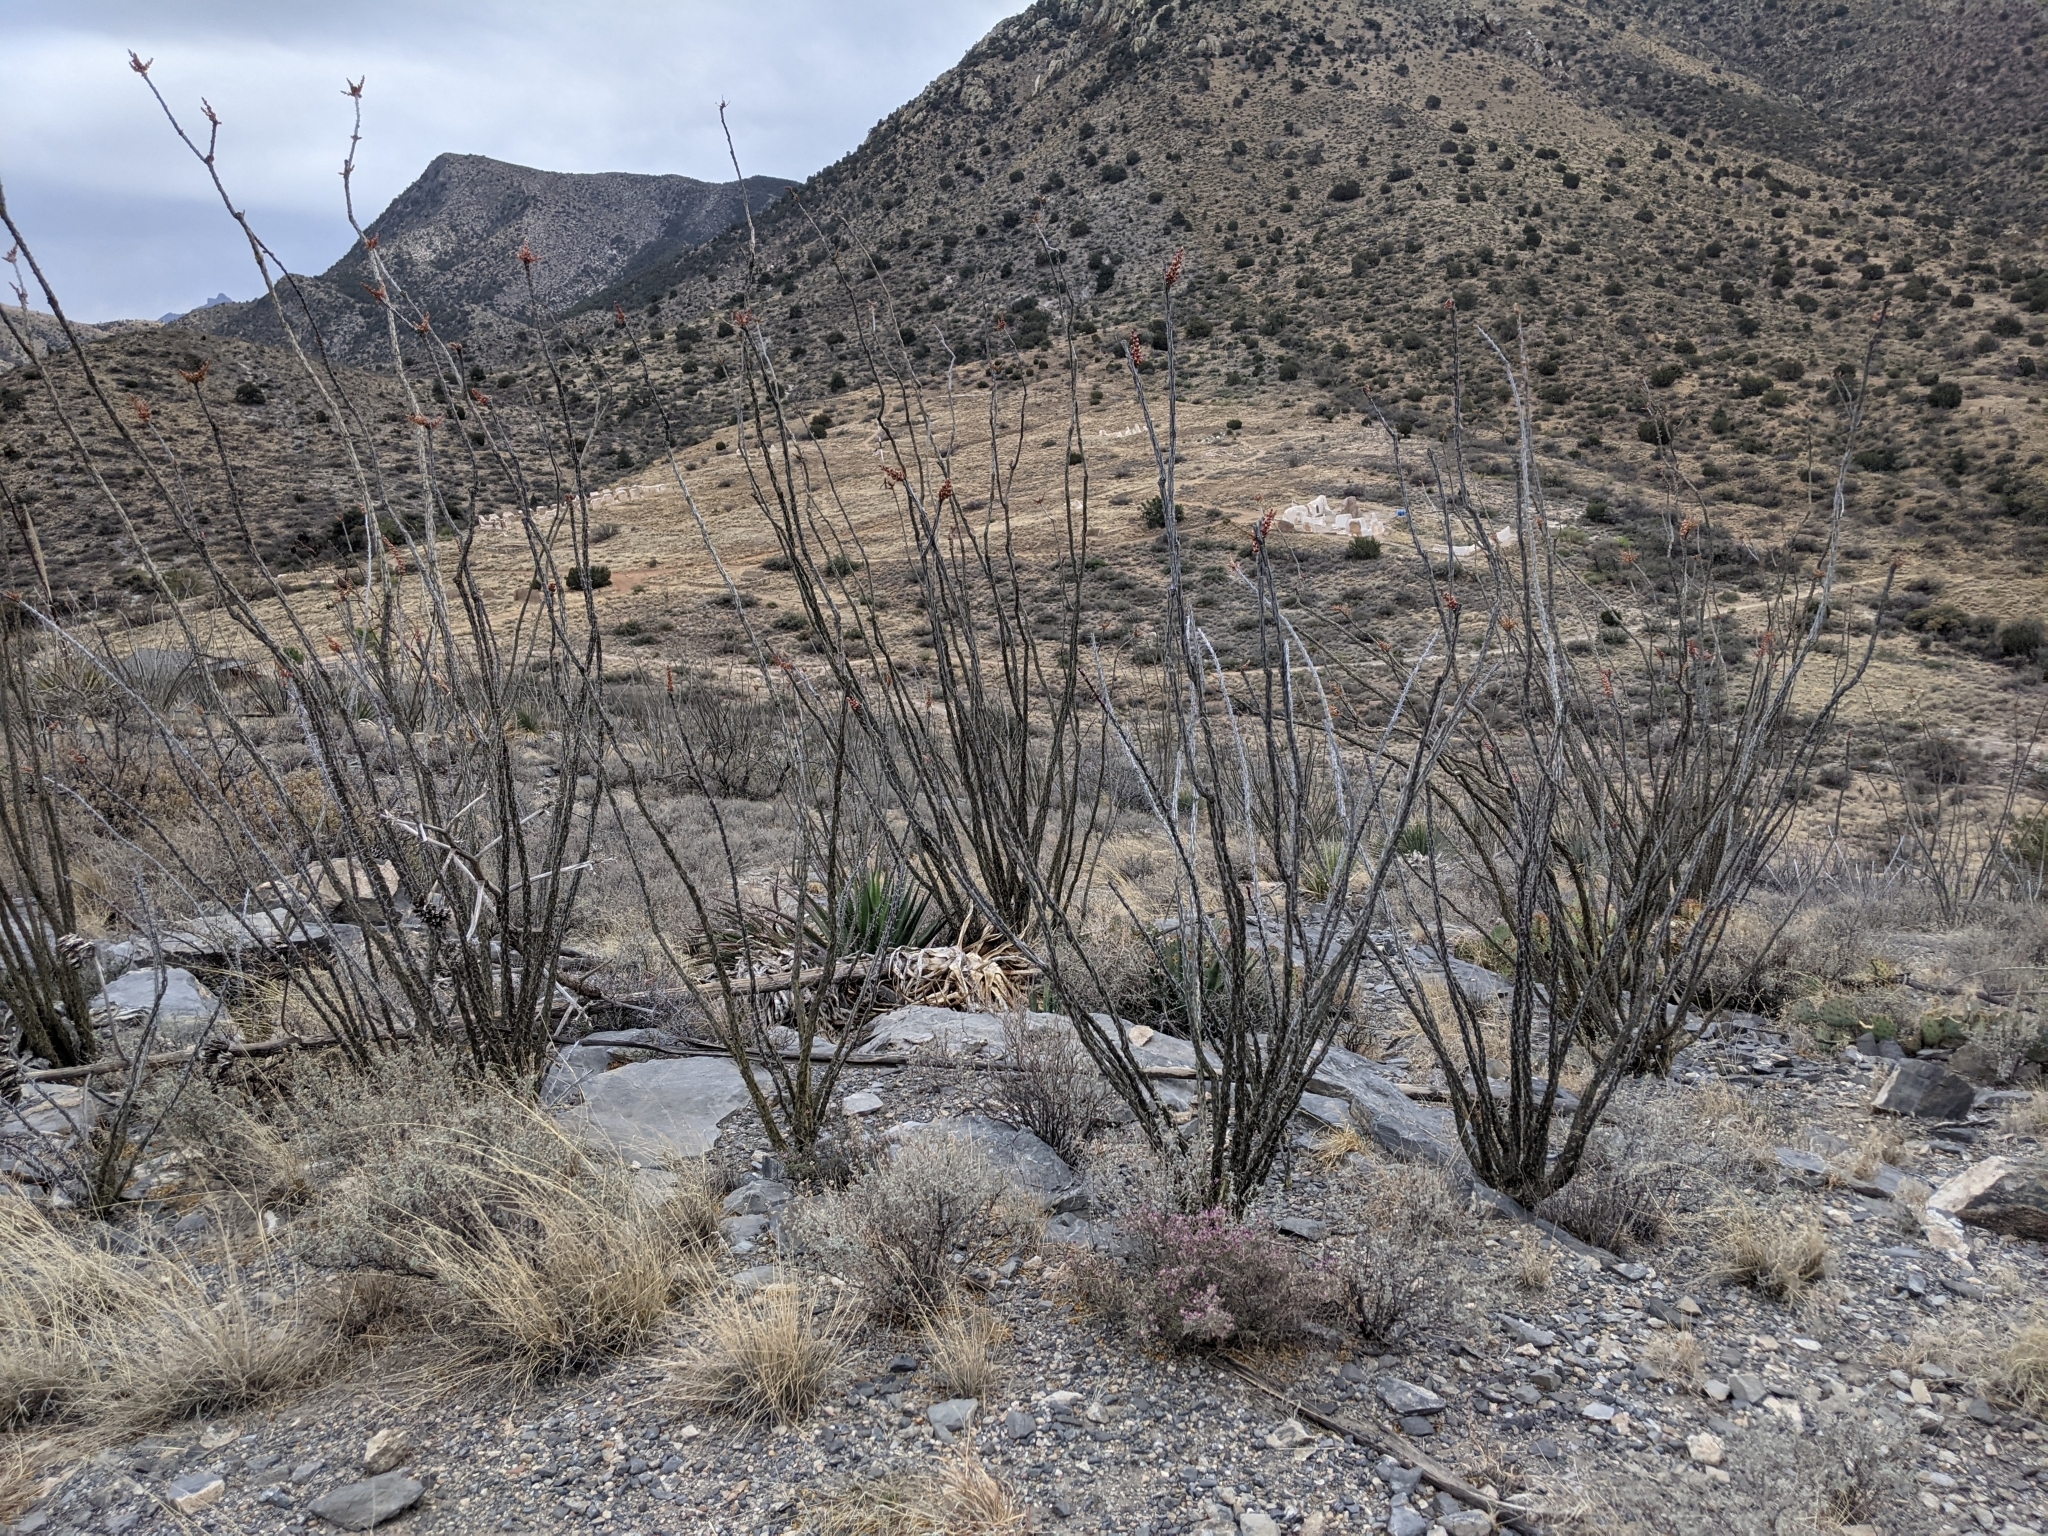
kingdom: Plantae
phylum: Tracheophyta
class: Magnoliopsida
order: Ericales
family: Fouquieriaceae
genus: Fouquieria
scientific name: Fouquieria splendens
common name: Vine-cactus
